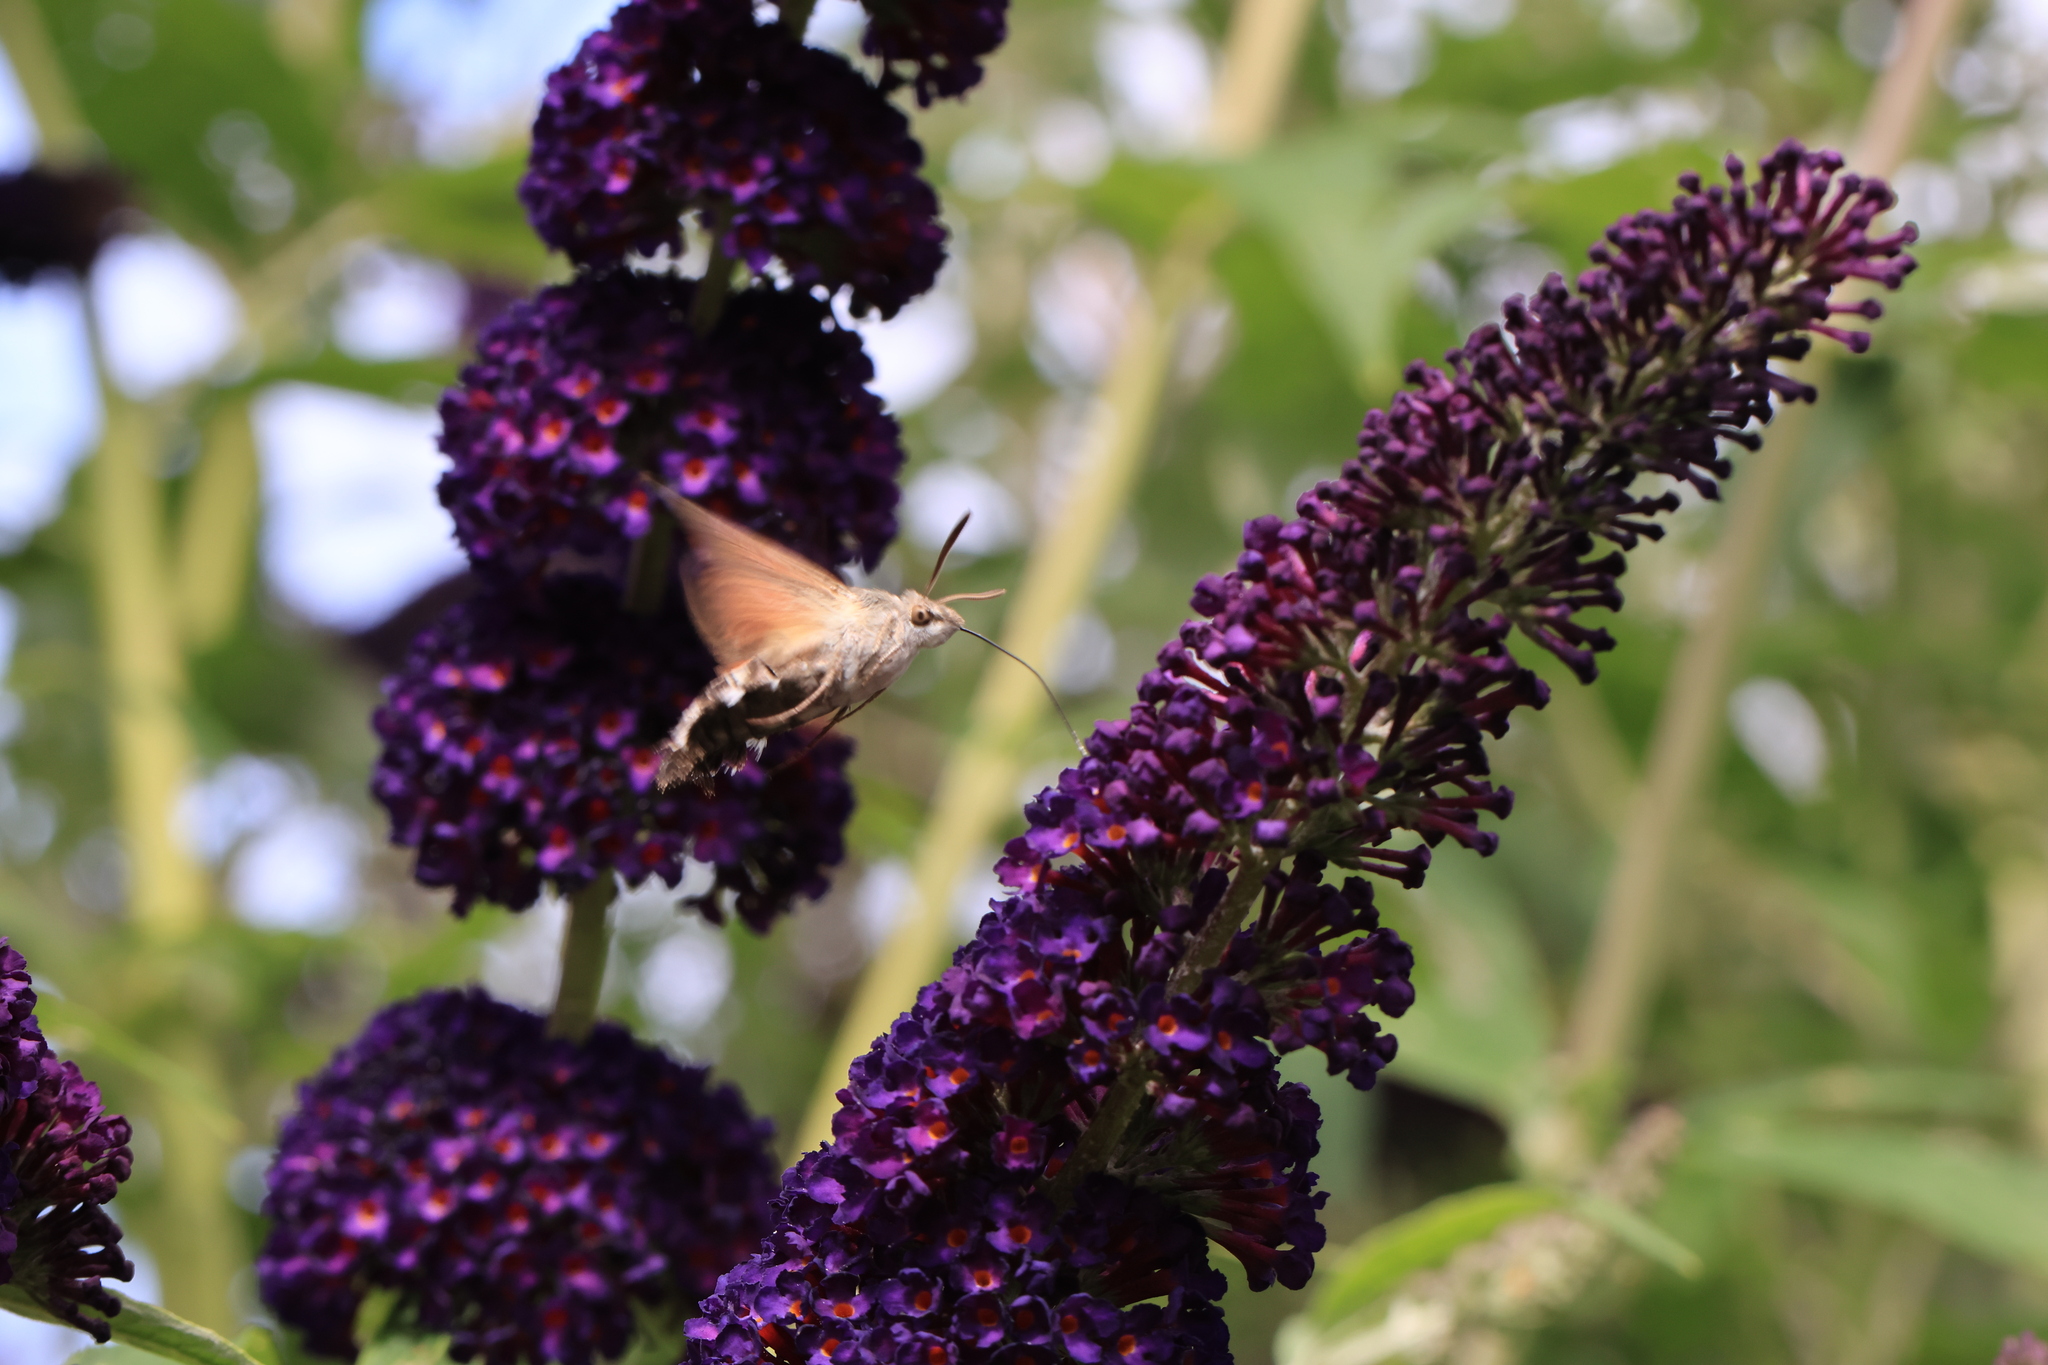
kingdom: Animalia
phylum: Arthropoda
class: Insecta
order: Lepidoptera
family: Sphingidae
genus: Macroglossum
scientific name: Macroglossum stellatarum
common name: Humming-bird hawk-moth
